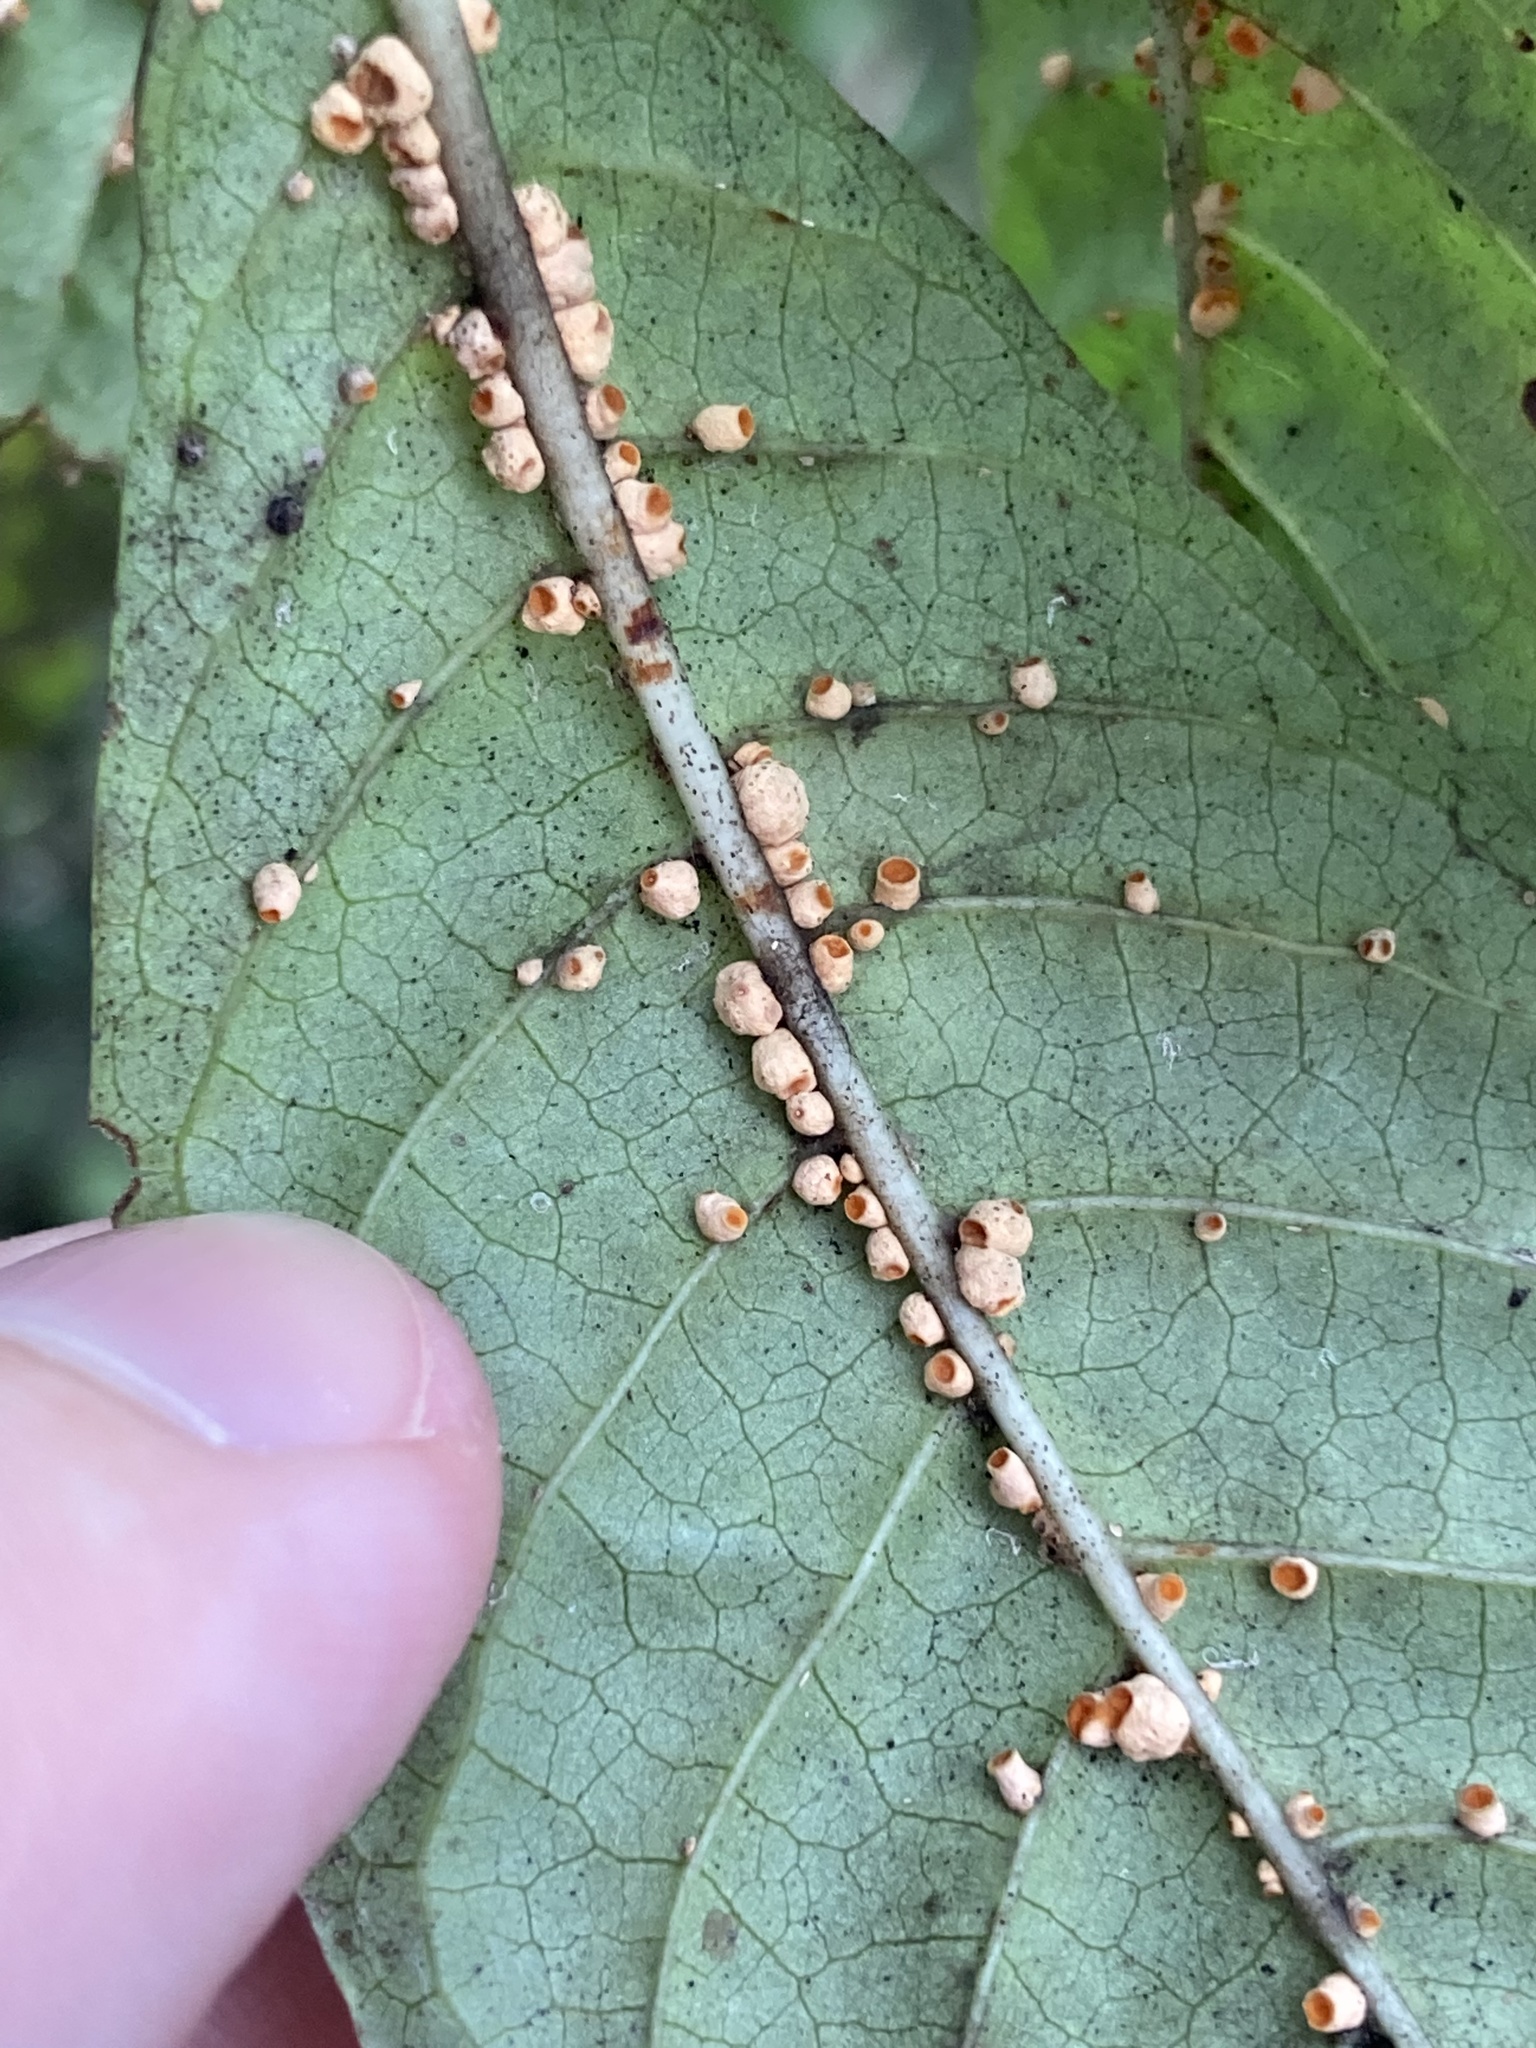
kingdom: Fungi
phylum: Ascomycota
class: Sordariomycetes
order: Hypocreales
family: Clavicipitaceae
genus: Moelleriella
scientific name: Moelleriella epiphylla
